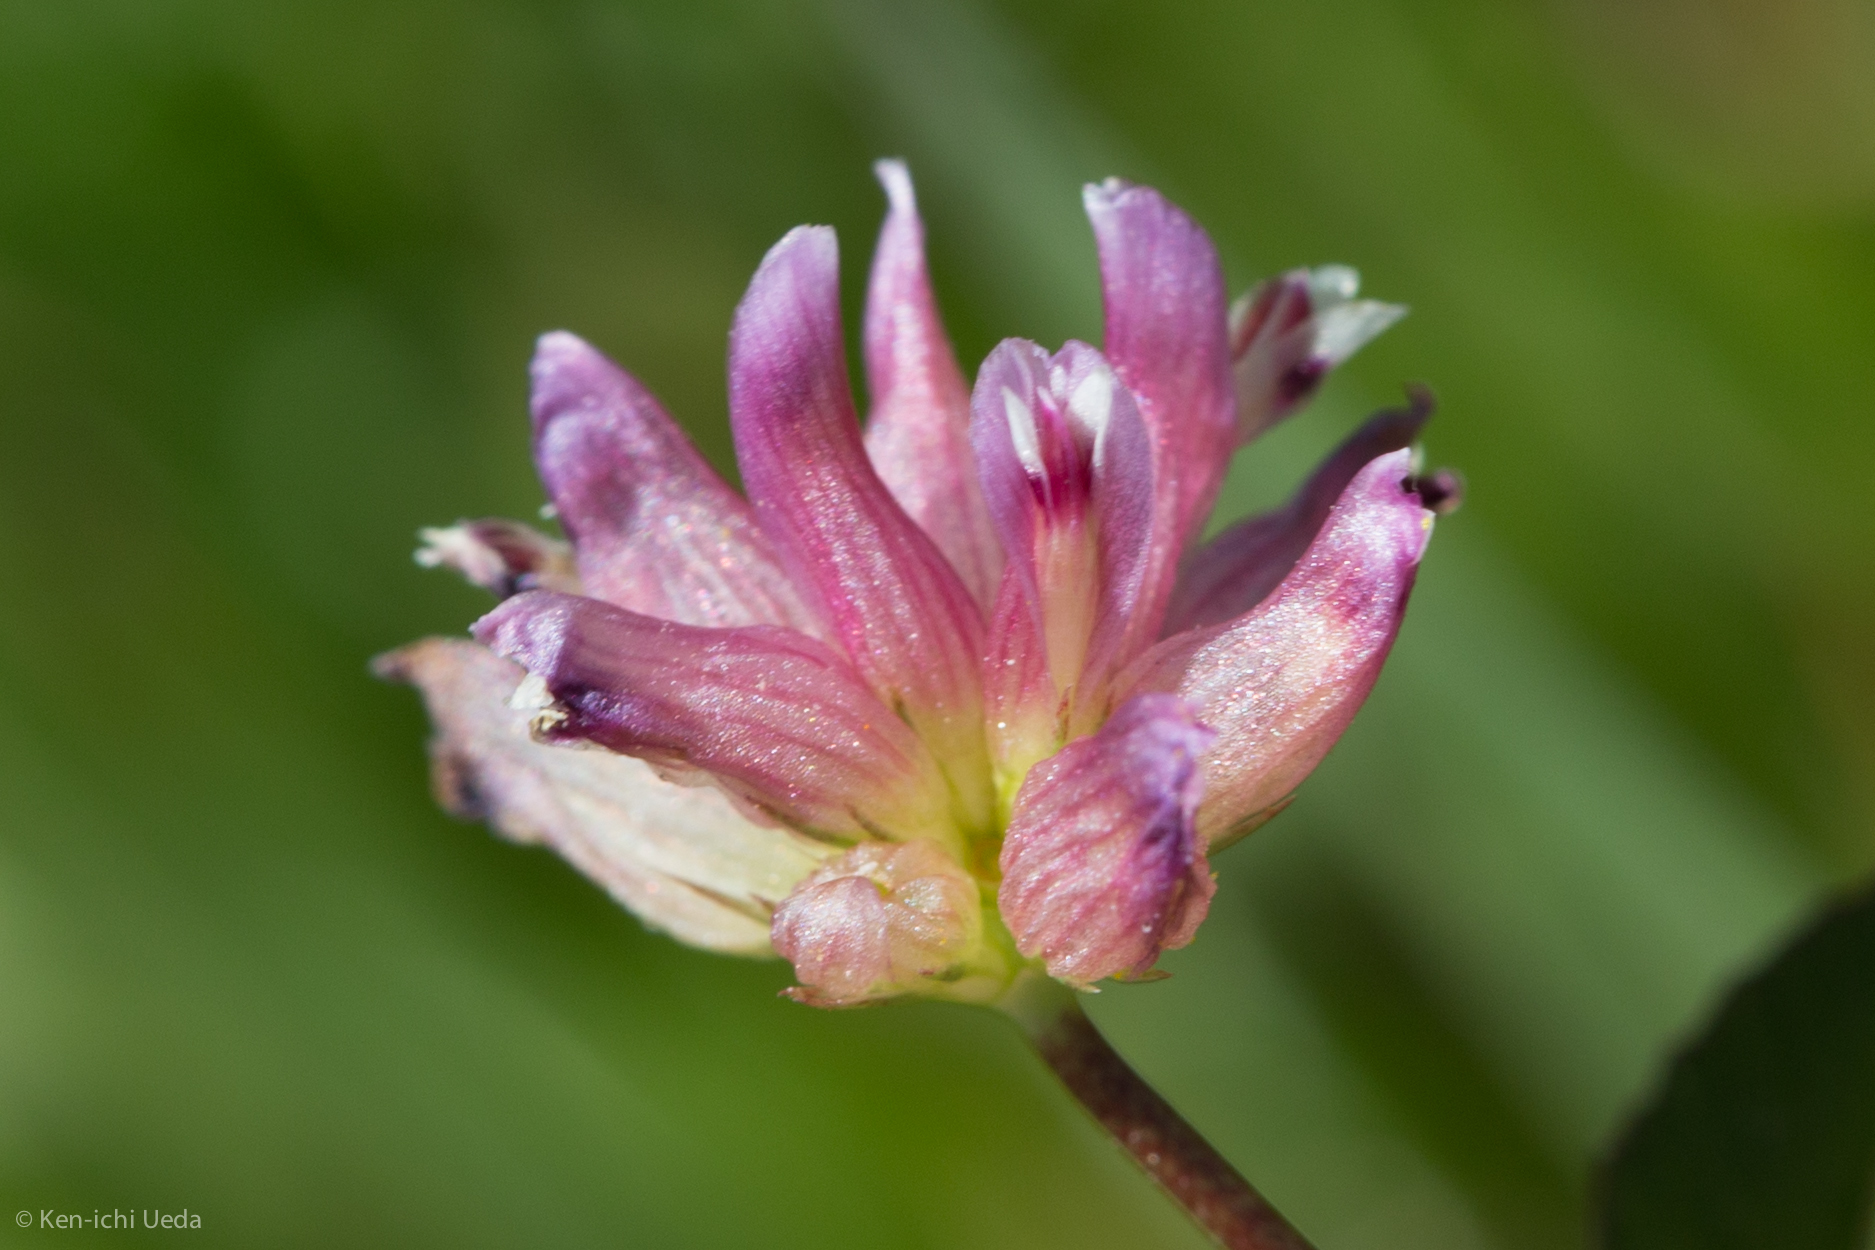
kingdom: Plantae
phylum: Tracheophyta
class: Magnoliopsida
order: Fabales
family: Fabaceae
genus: Trifolium
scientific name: Trifolium depauperatum
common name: Poverty clover
